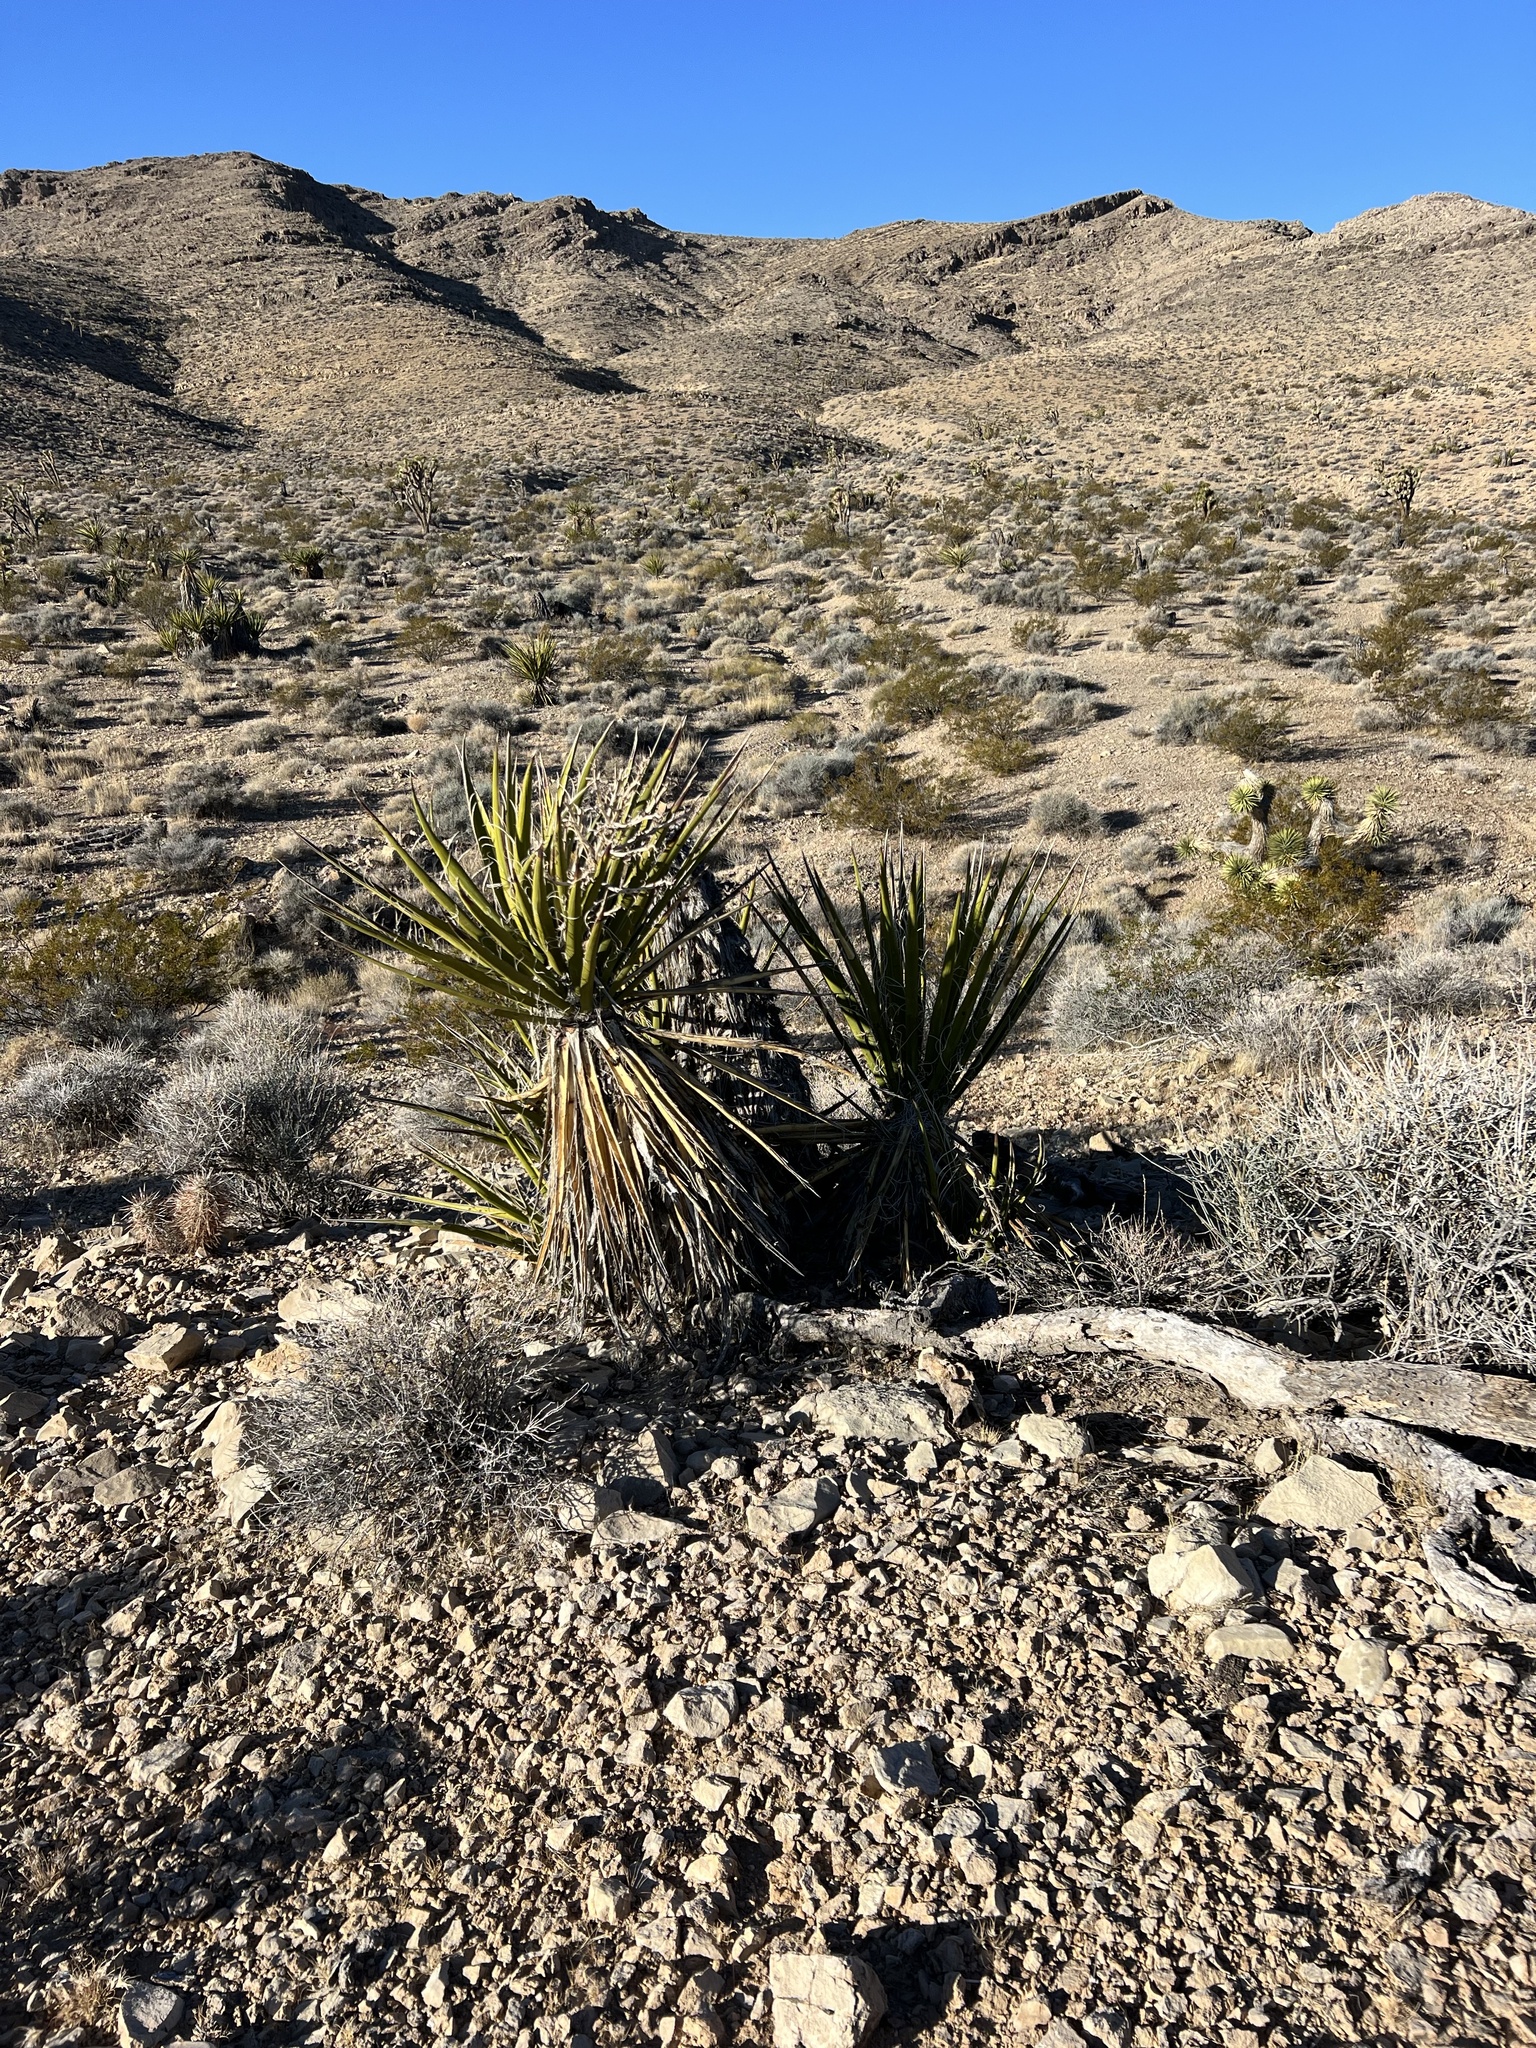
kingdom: Plantae
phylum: Tracheophyta
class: Liliopsida
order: Asparagales
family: Asparagaceae
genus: Yucca
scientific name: Yucca schidigera
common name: Mojave yucca
